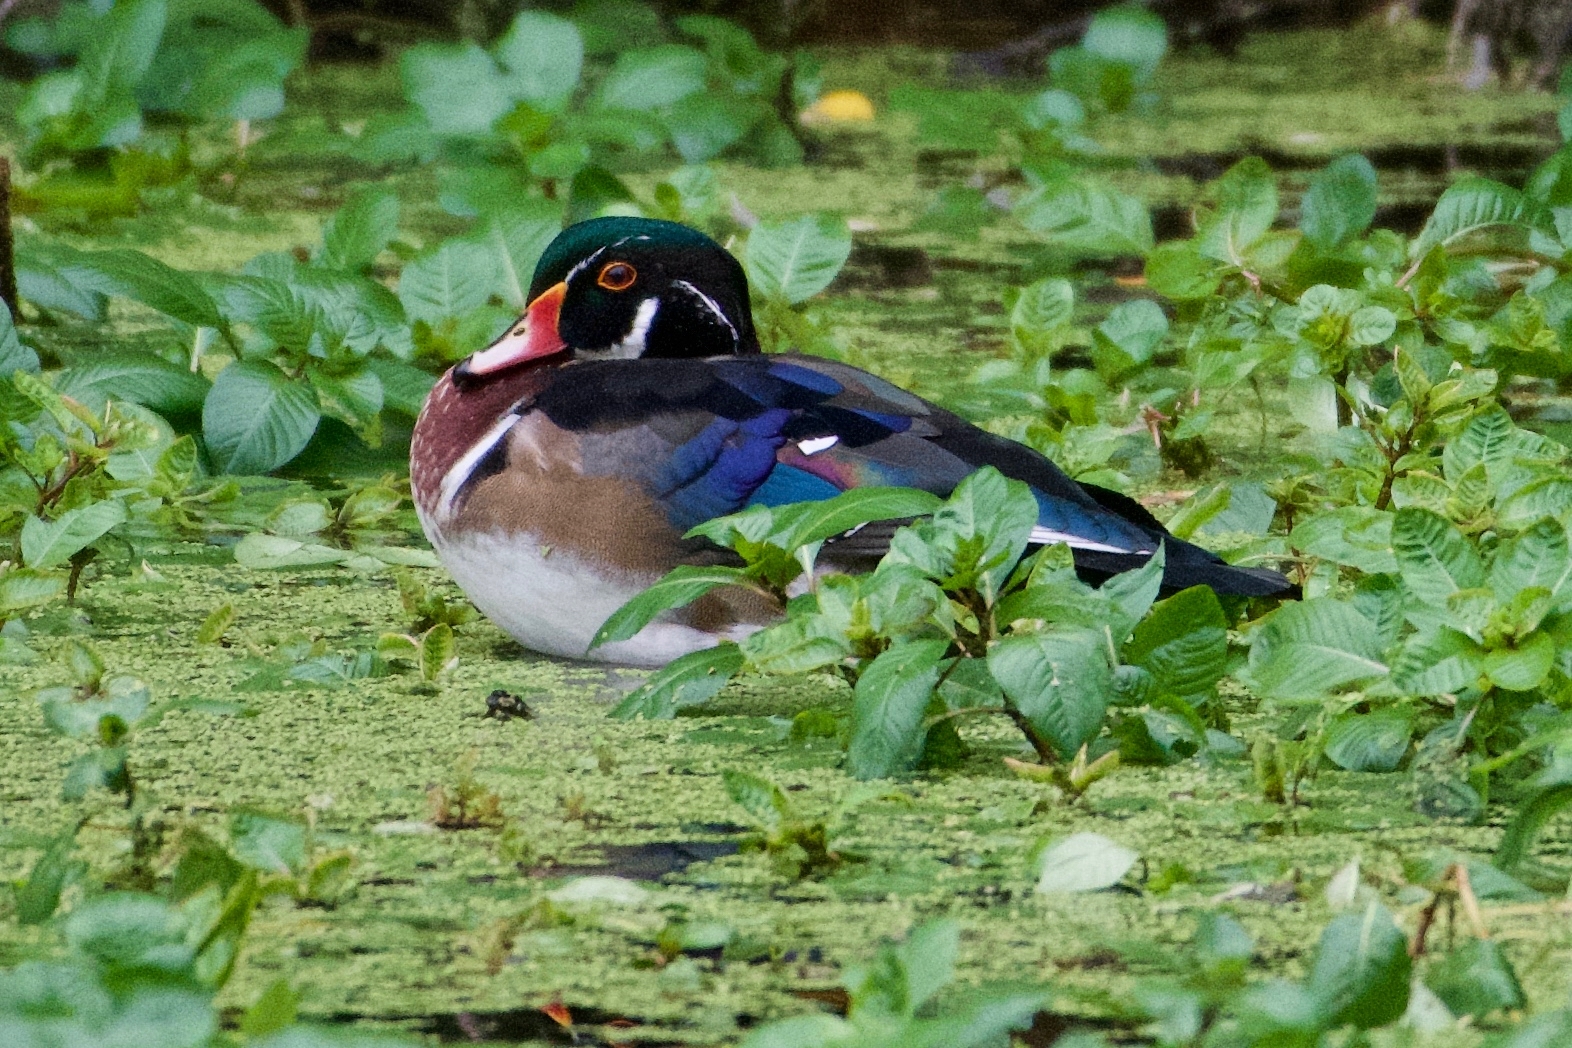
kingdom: Animalia
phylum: Chordata
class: Aves
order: Anseriformes
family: Anatidae
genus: Aix
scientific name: Aix sponsa
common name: Wood duck
